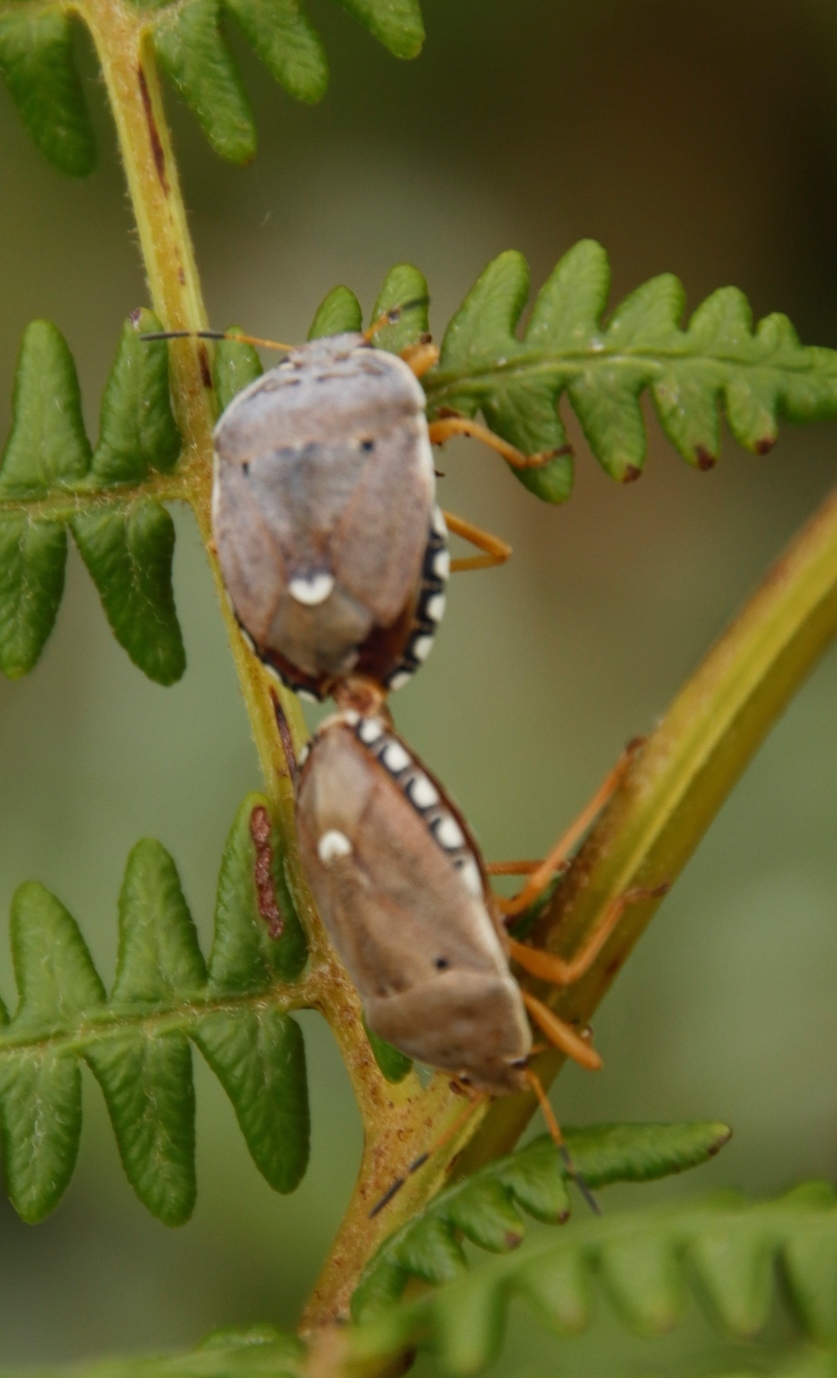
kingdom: Animalia
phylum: Arthropoda
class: Insecta
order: Hemiptera
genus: Erachtheus
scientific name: Erachtheus
